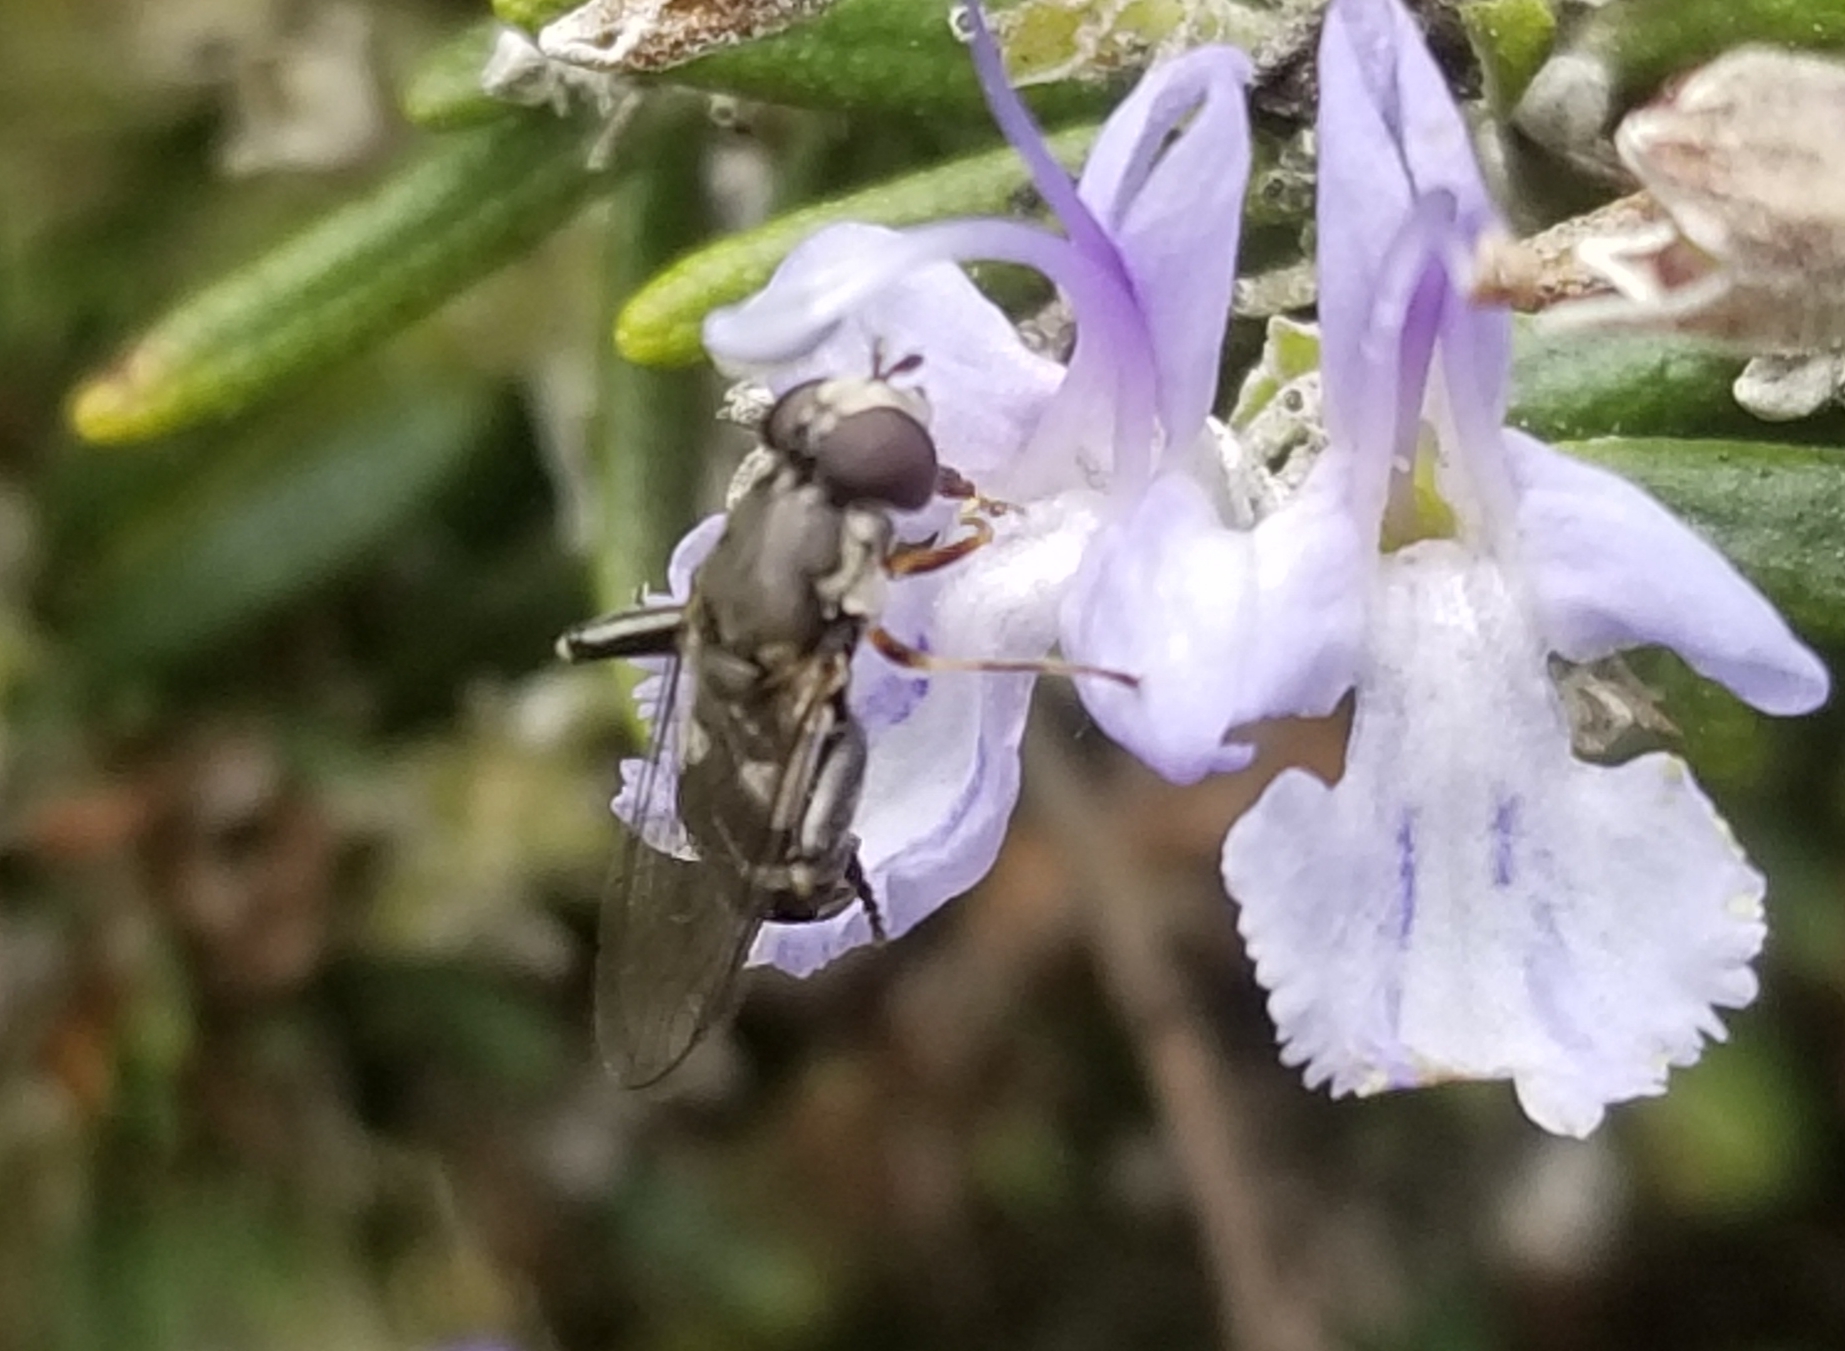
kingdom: Animalia
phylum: Arthropoda
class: Insecta
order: Diptera
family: Syrphidae
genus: Syritta
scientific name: Syritta pipiens
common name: Hover fly
